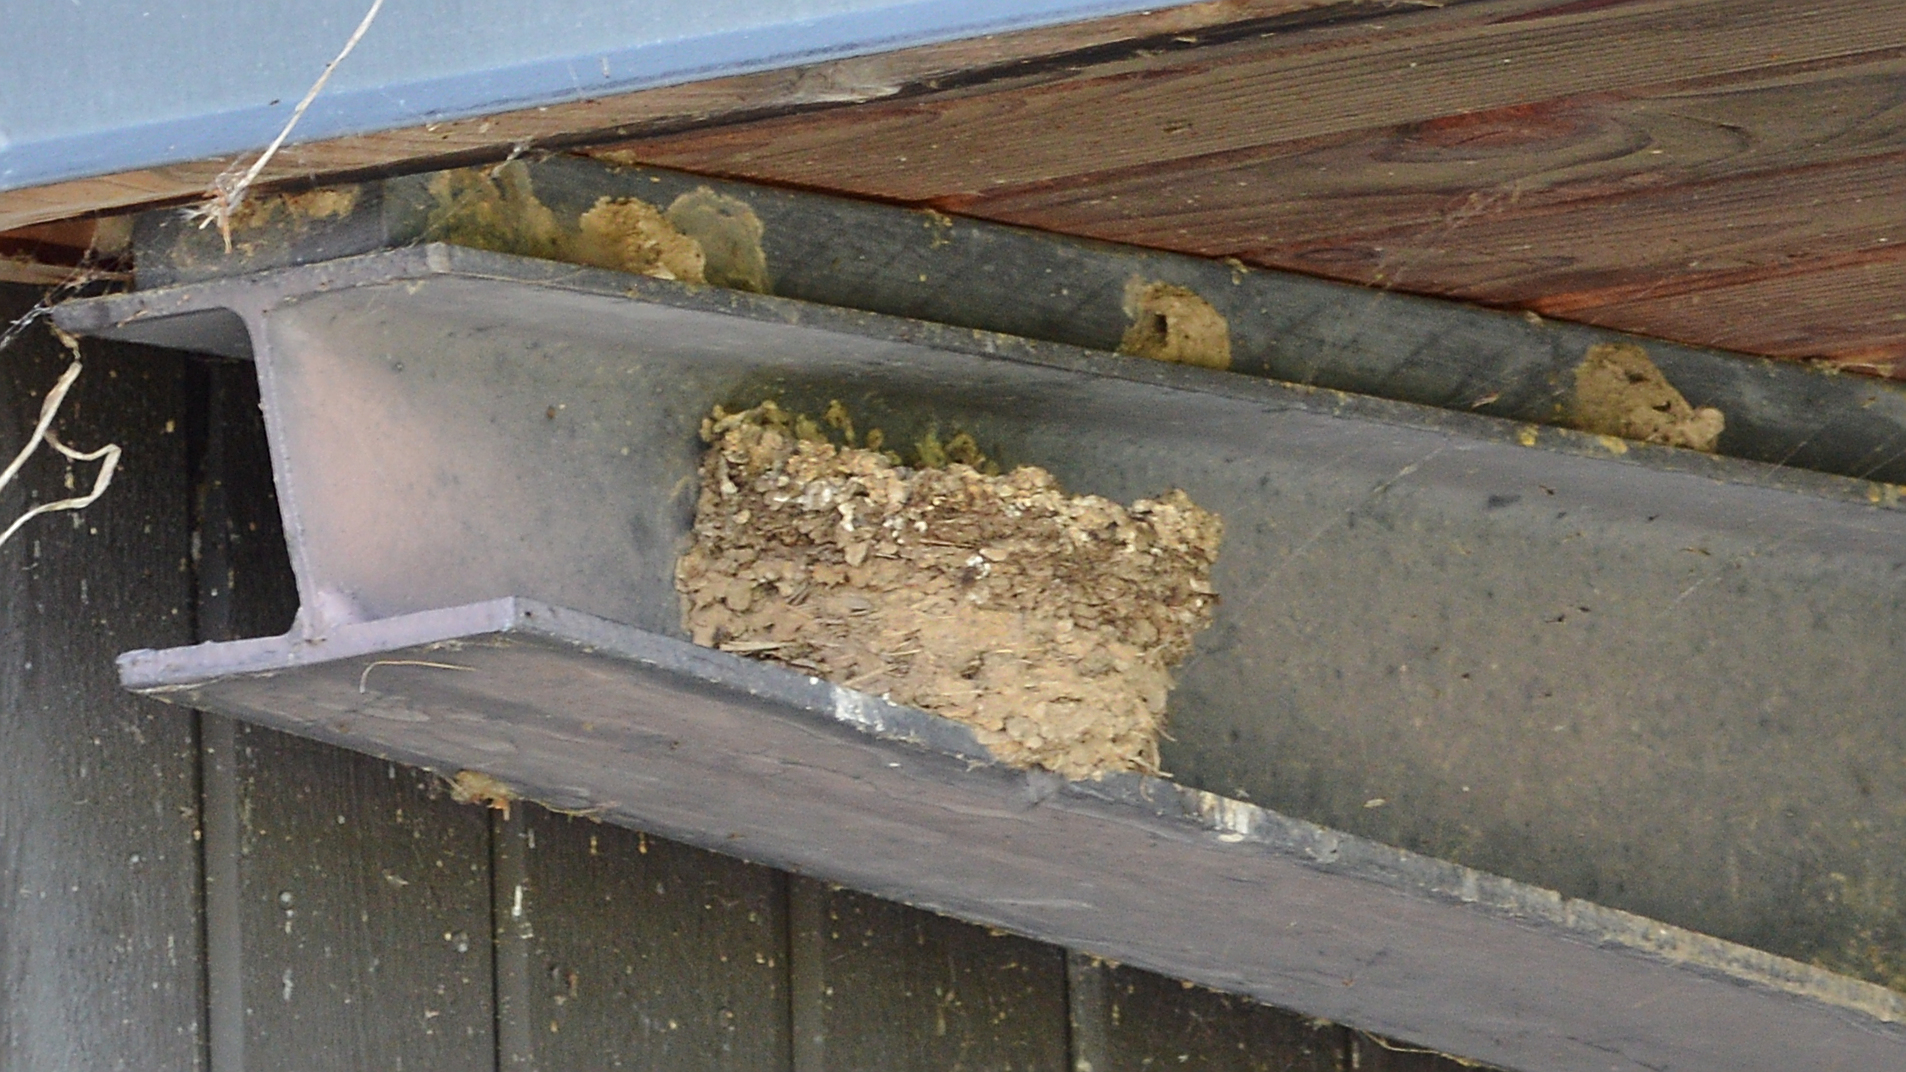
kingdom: Animalia
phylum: Chordata
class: Aves
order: Passeriformes
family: Hirundinidae
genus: Hirundo
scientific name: Hirundo rustica
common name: Barn swallow
